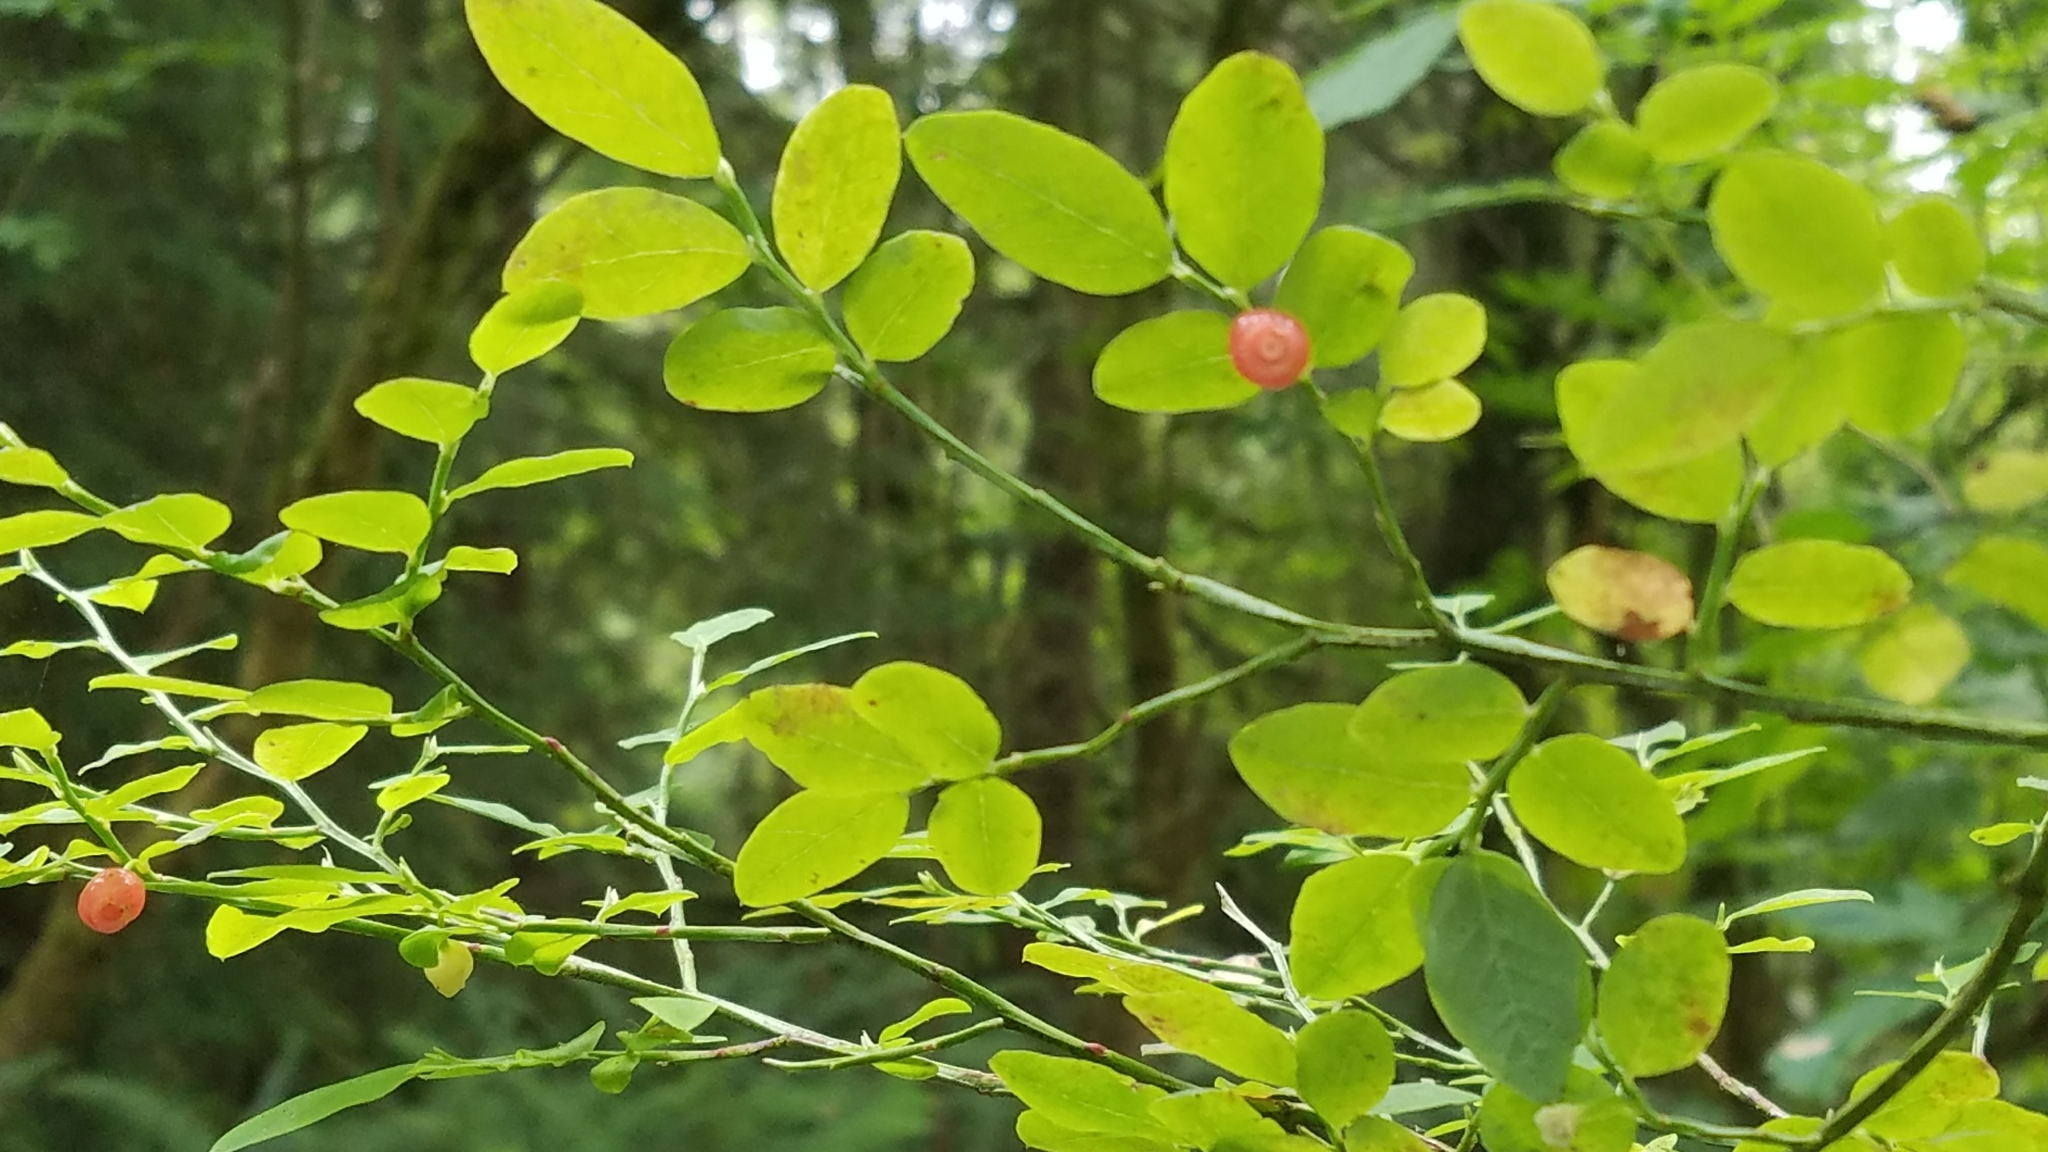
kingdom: Plantae
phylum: Tracheophyta
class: Magnoliopsida
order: Ericales
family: Ericaceae
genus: Vaccinium
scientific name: Vaccinium parvifolium
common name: Red-huckleberry
